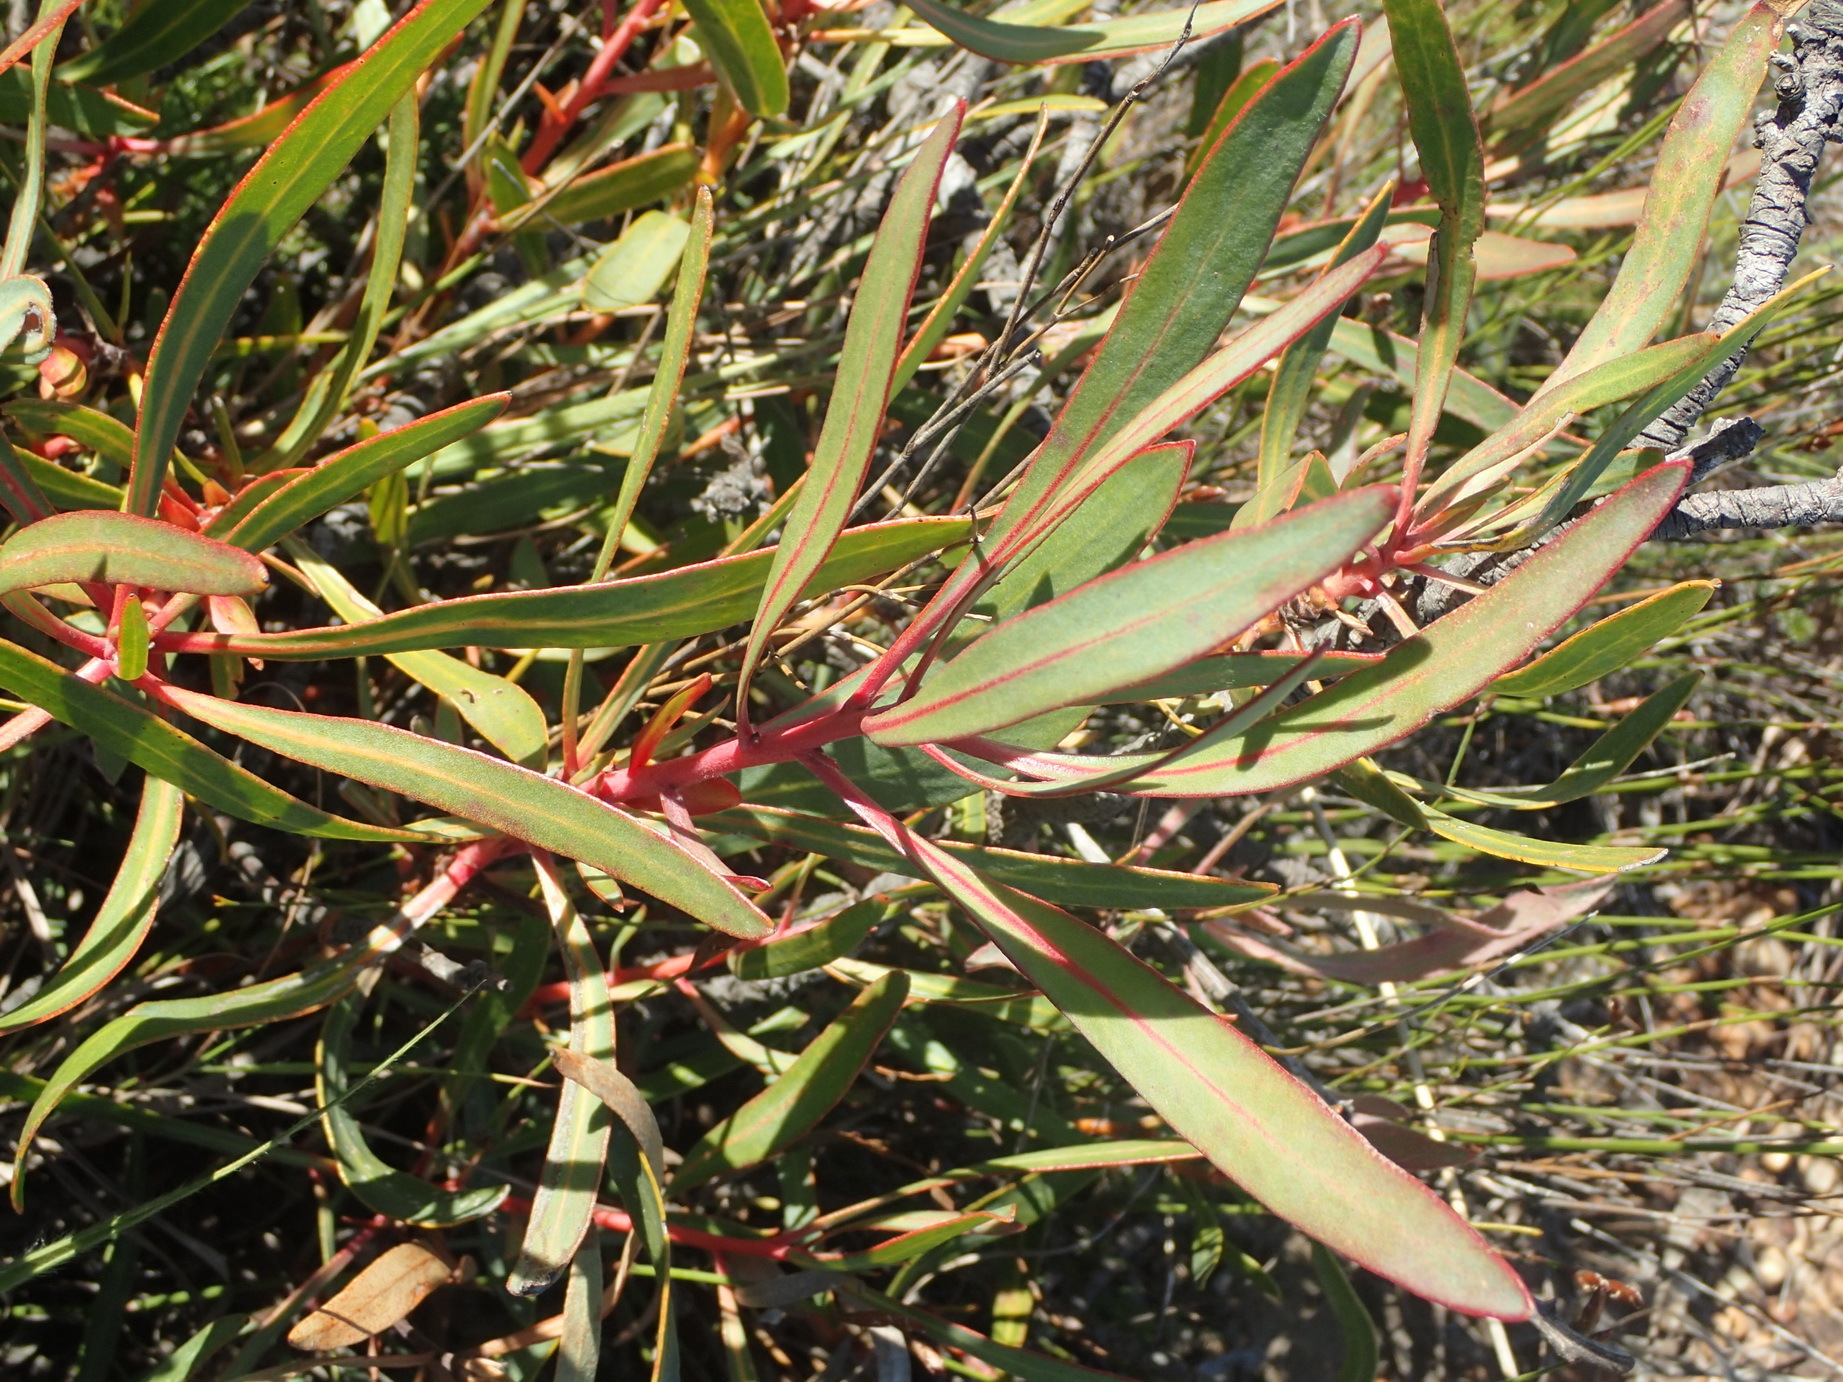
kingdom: Plantae
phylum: Tracheophyta
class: Magnoliopsida
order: Proteales
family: Proteaceae
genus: Protea
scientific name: Protea tenax
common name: Tenacious sugarbush
